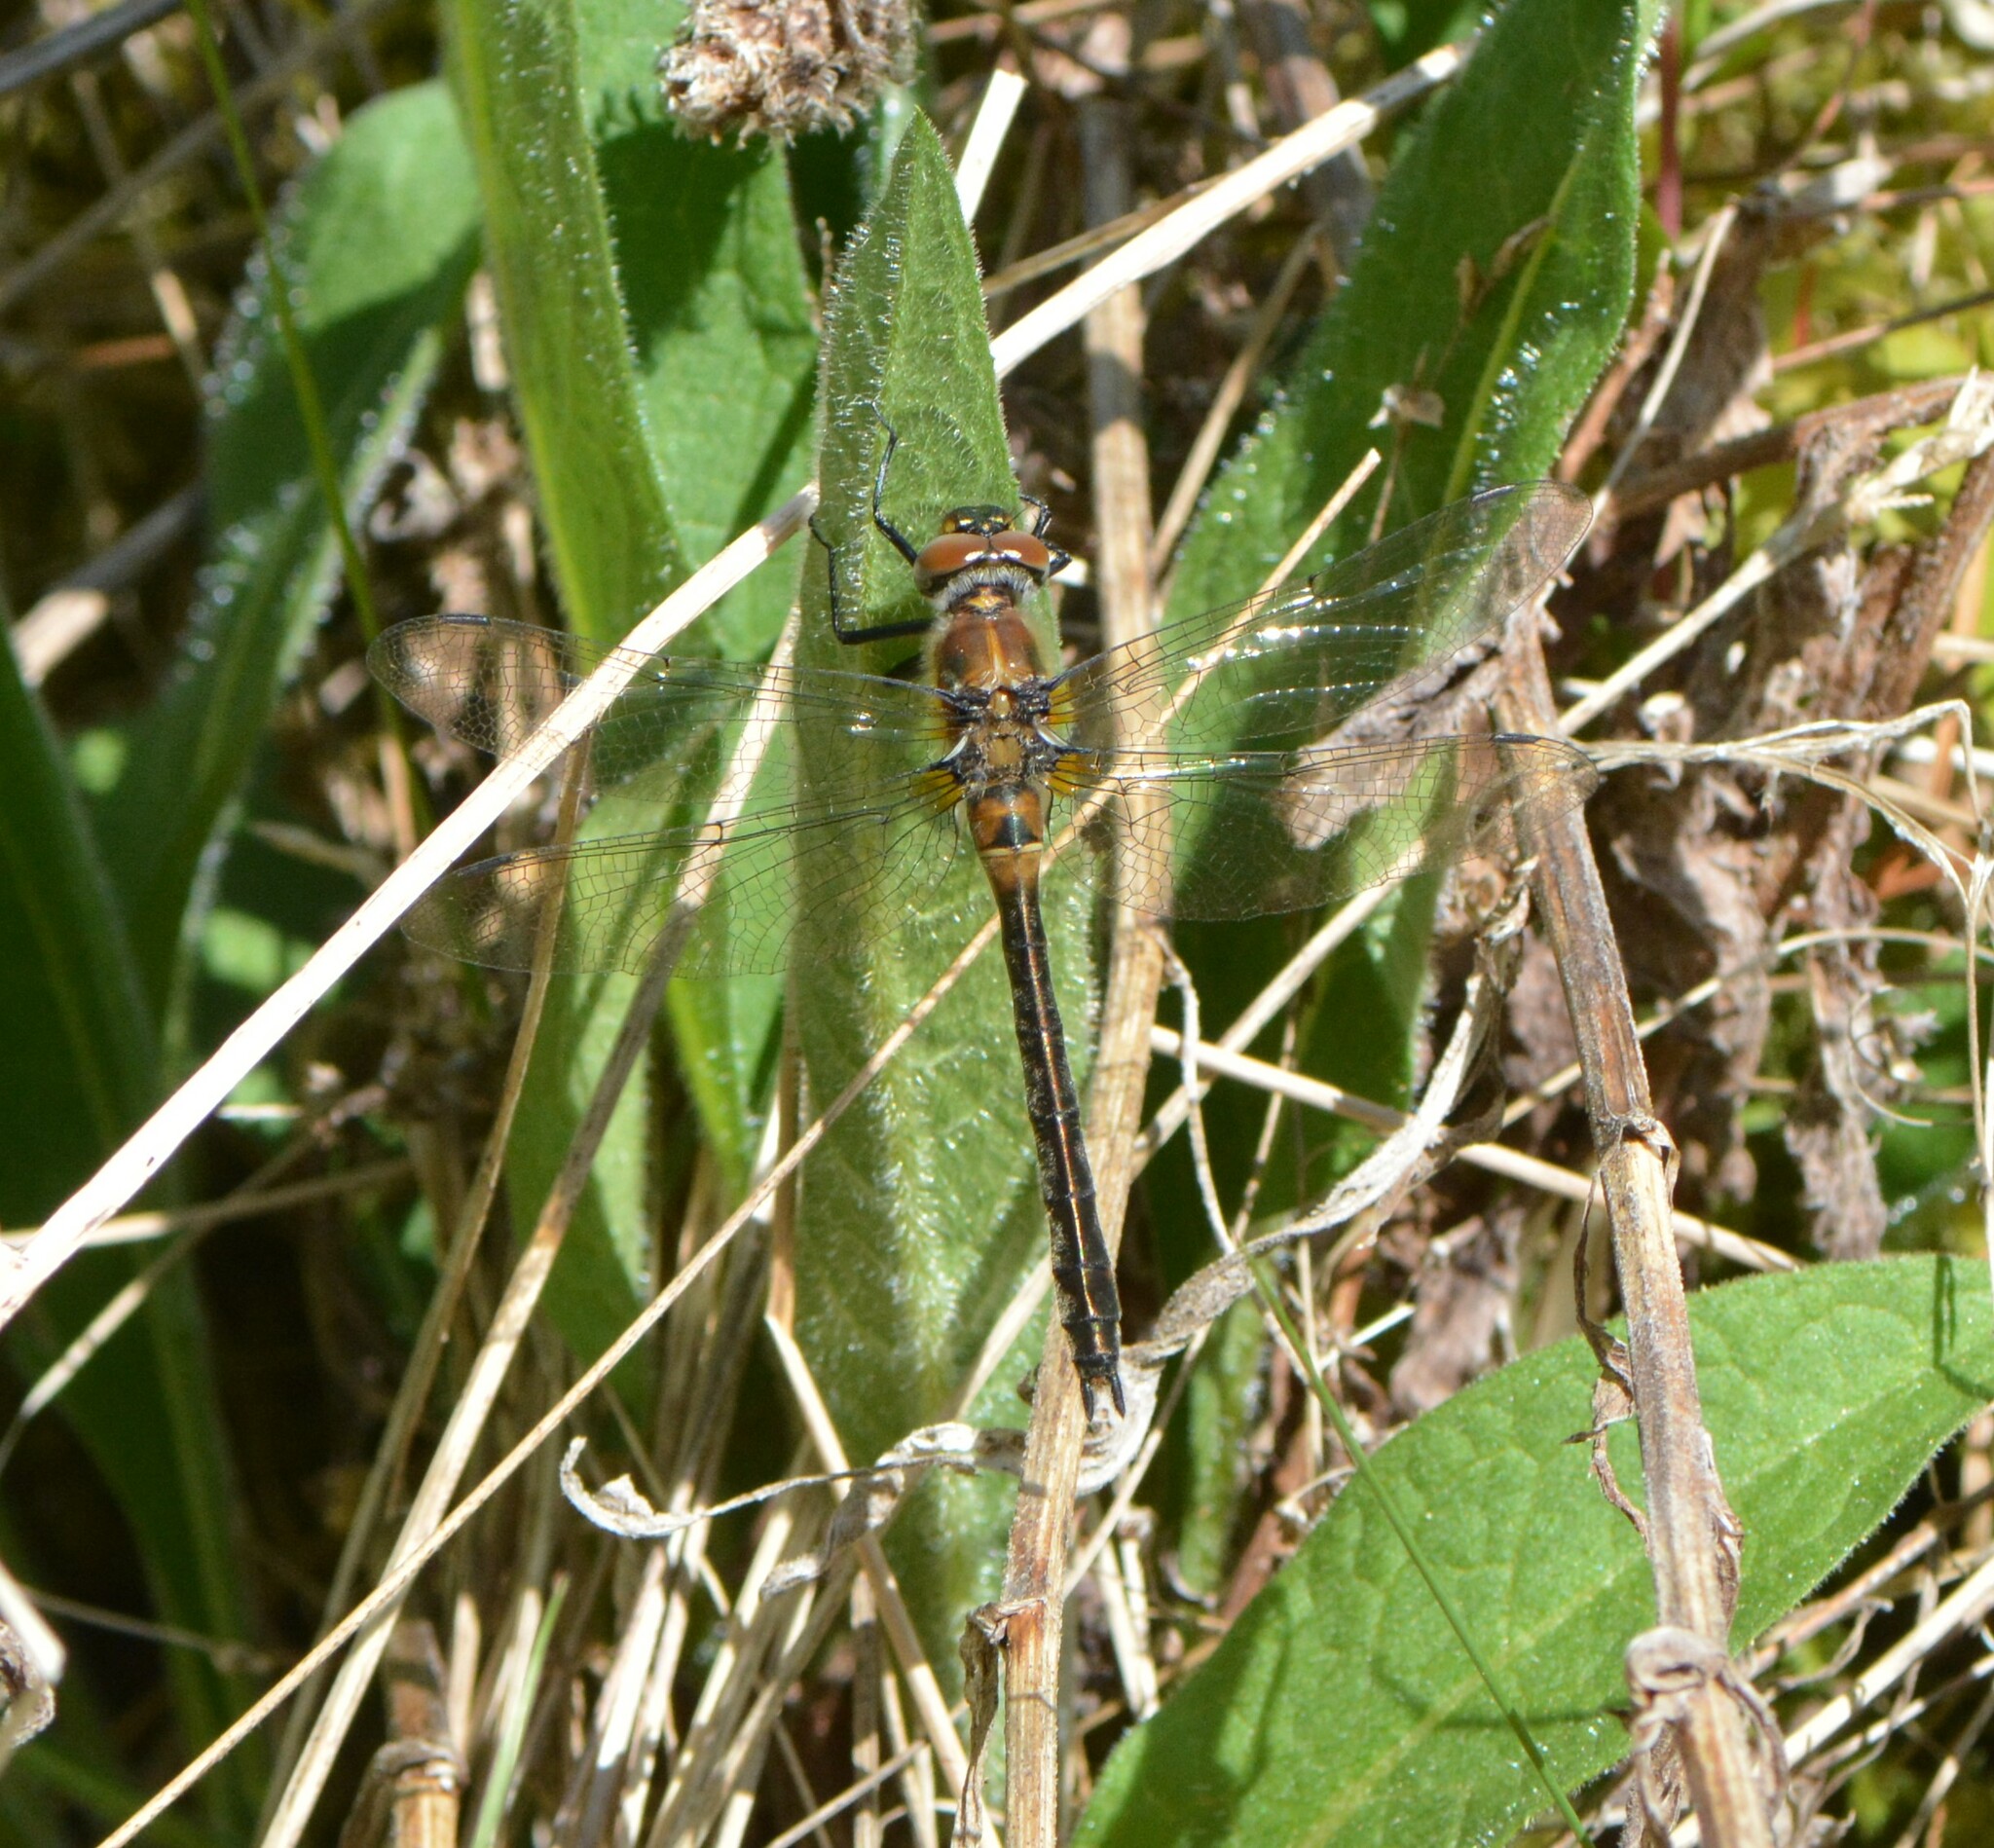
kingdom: Animalia
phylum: Arthropoda
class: Insecta
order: Odonata
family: Corduliidae
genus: Cordulia
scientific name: Cordulia shurtleffii
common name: American emerald
